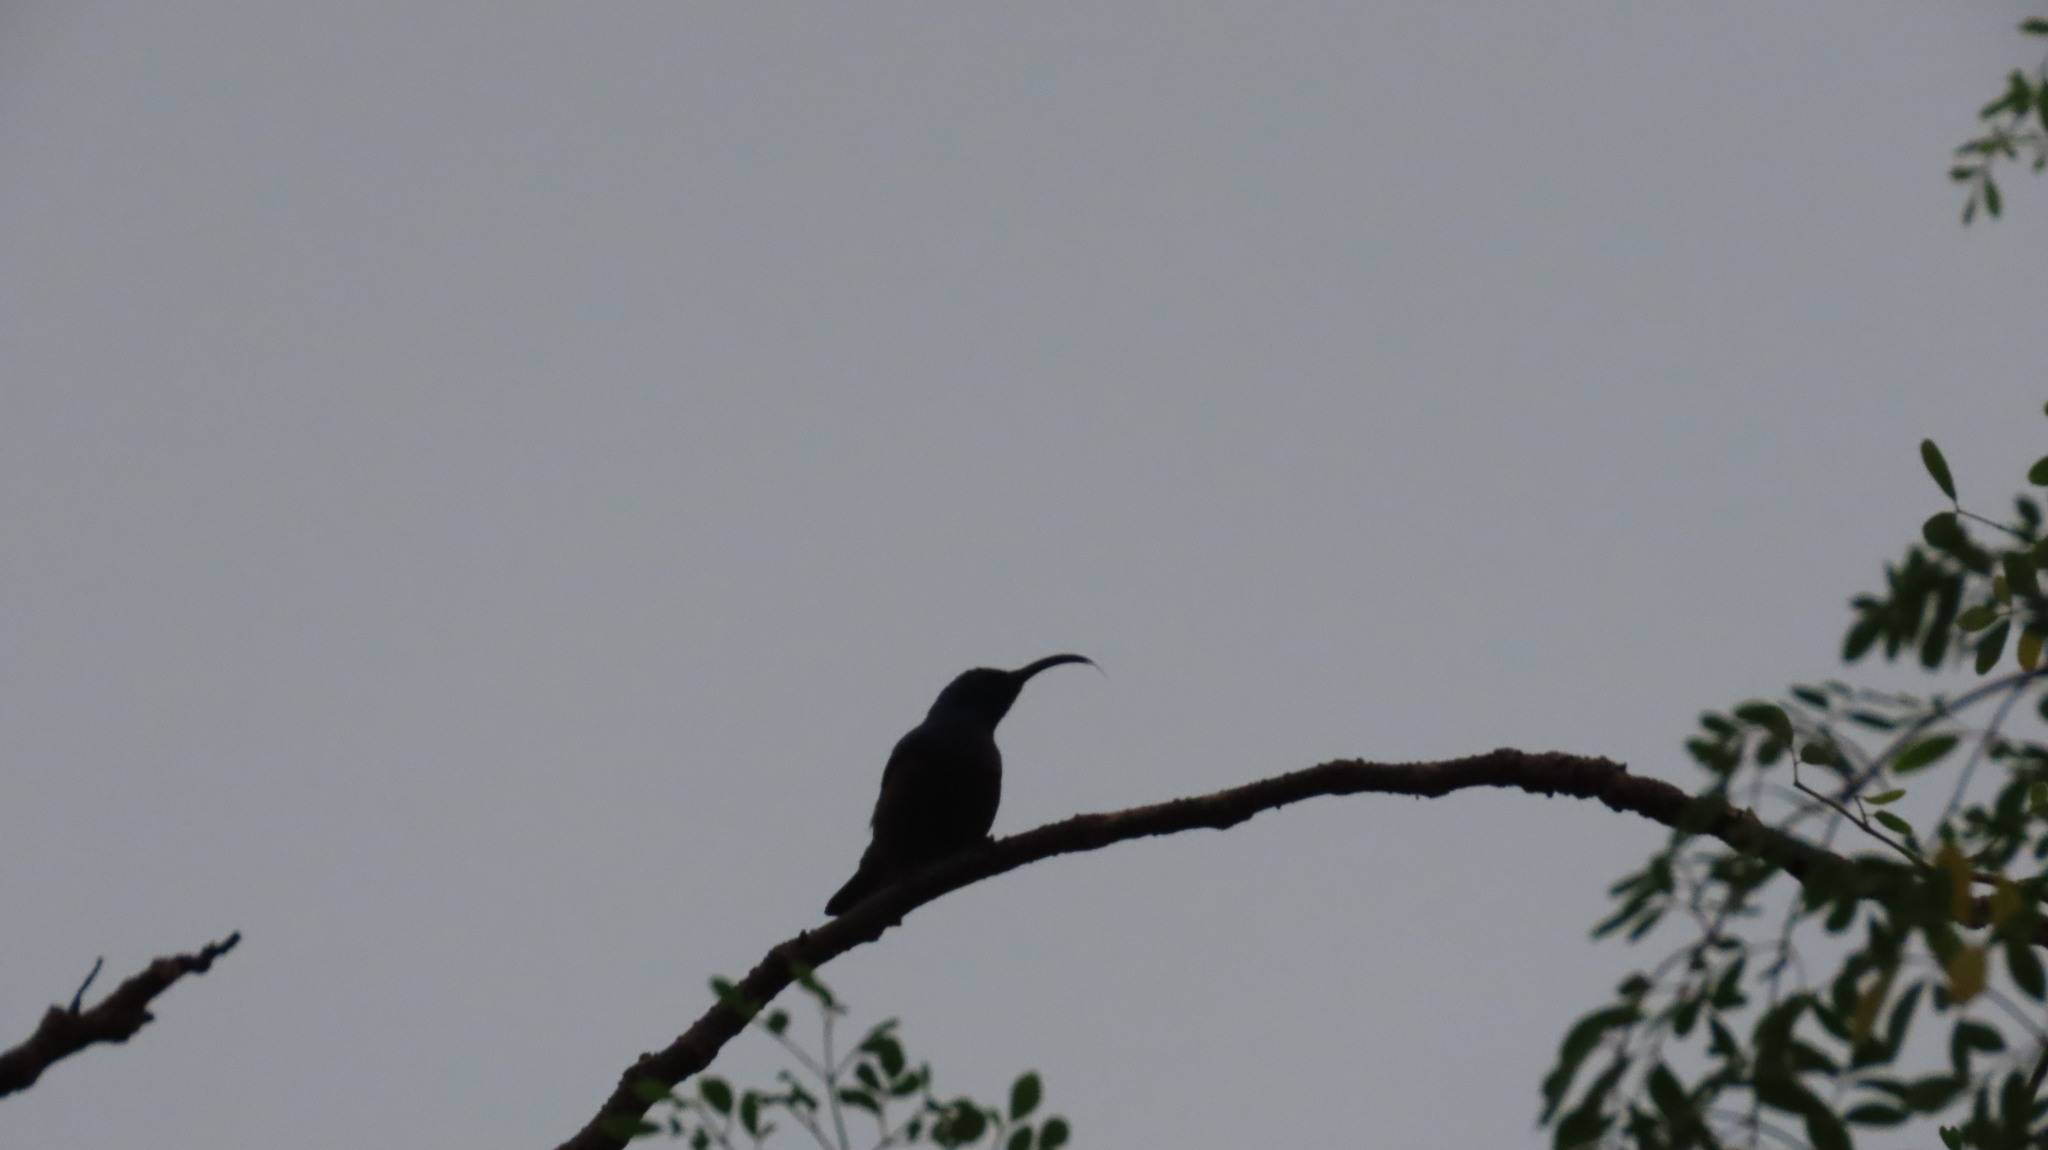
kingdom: Animalia
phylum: Chordata
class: Aves
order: Passeriformes
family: Nectariniidae
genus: Cinnyris
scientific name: Cinnyris lotenius
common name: Loten's sunbird
